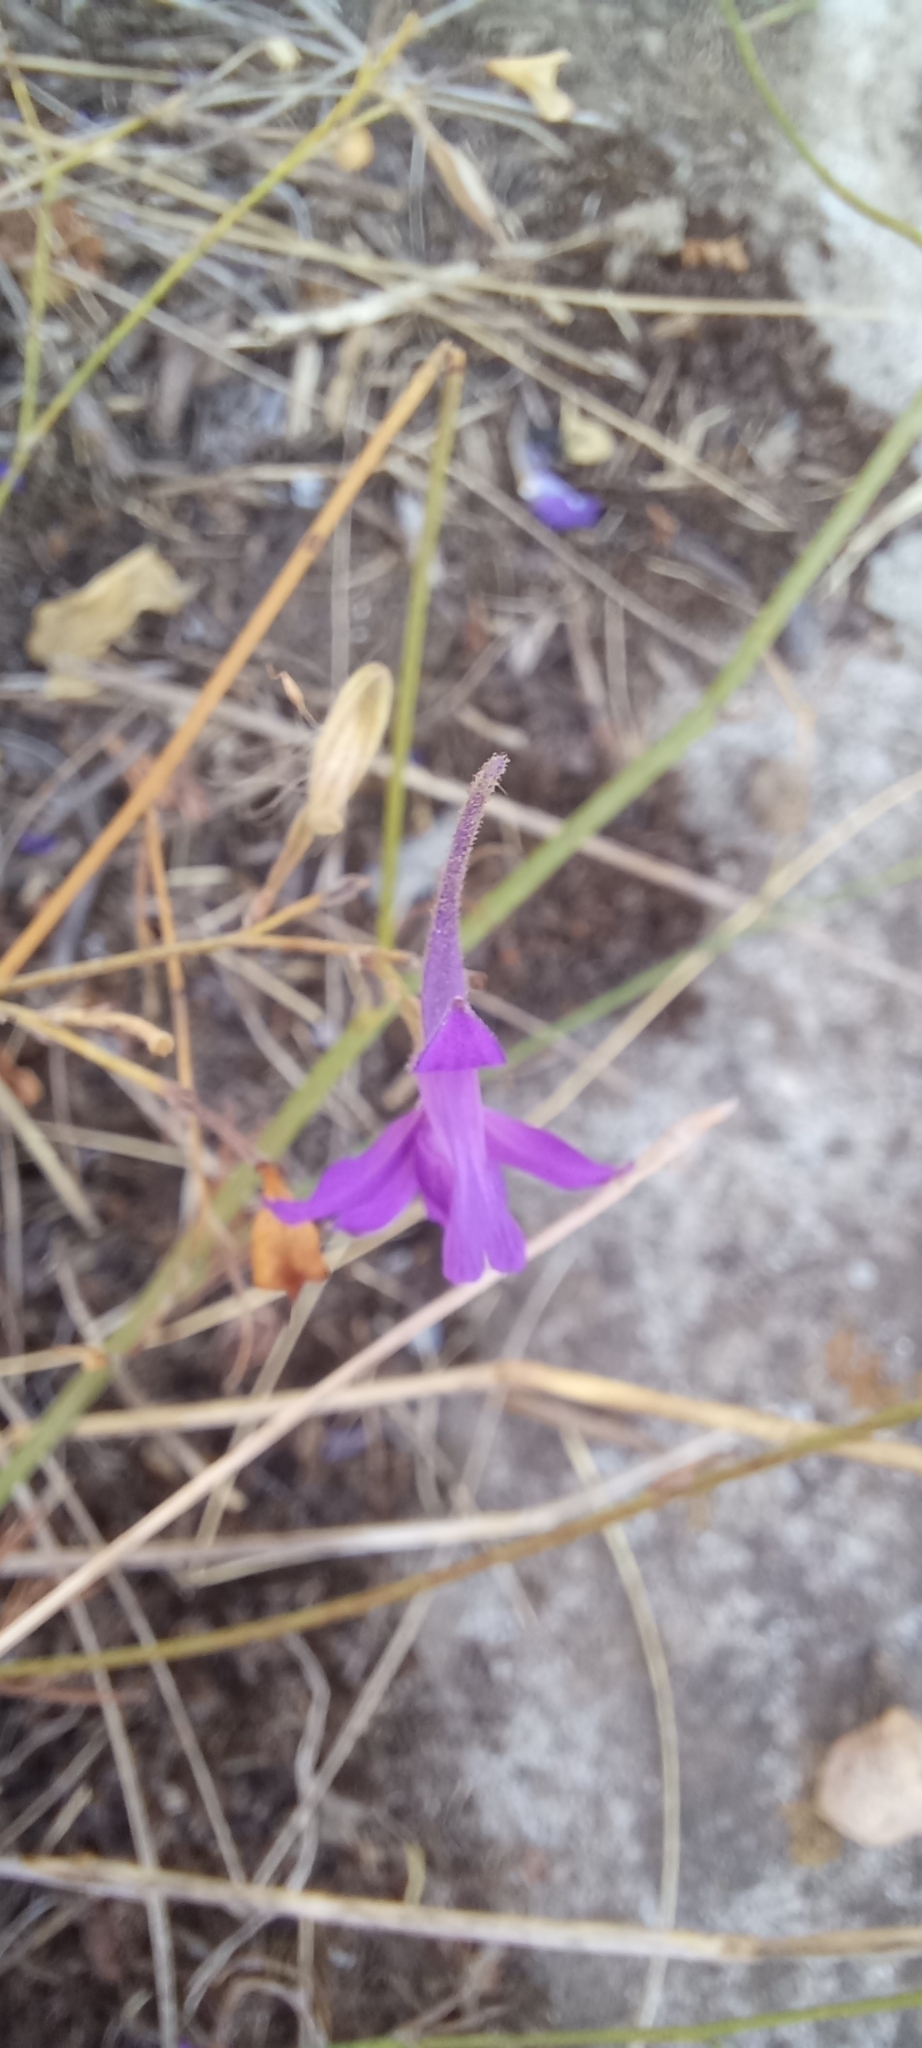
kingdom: Plantae
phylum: Tracheophyta
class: Magnoliopsida
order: Ranunculales
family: Ranunculaceae
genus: Delphinium
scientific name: Delphinium consolida
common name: Branching larkspur
